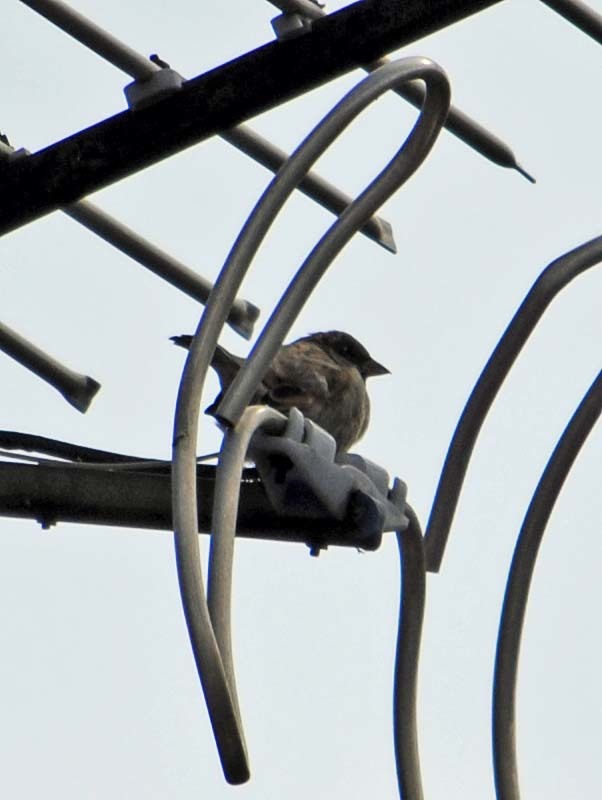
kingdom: Animalia
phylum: Chordata
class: Aves
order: Passeriformes
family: Passeridae
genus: Passer
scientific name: Passer domesticus
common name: House sparrow
